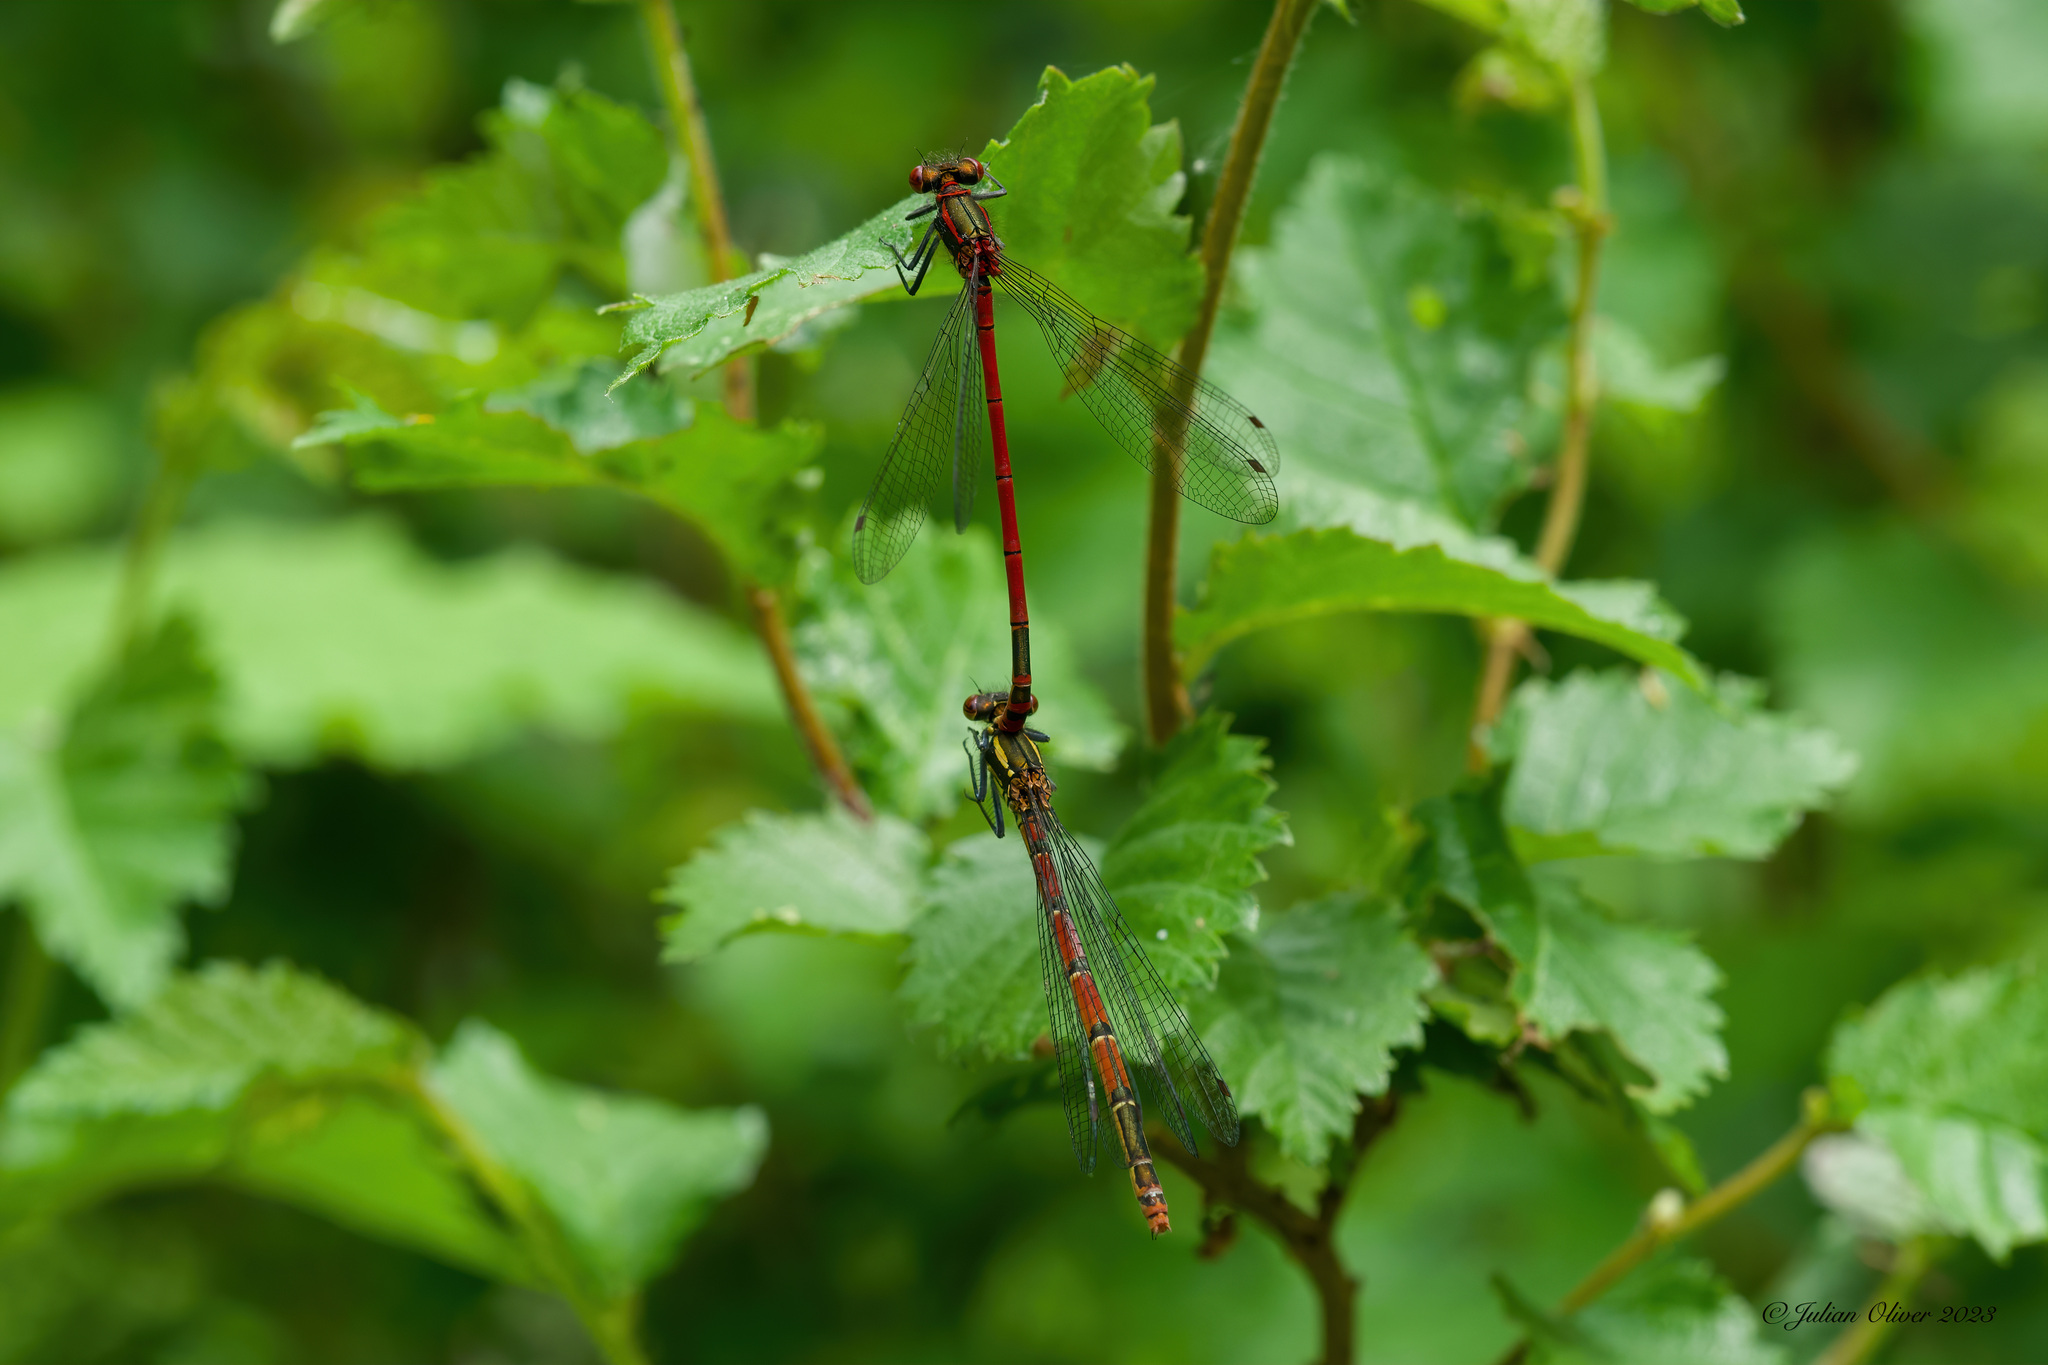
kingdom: Animalia
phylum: Arthropoda
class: Insecta
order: Odonata
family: Coenagrionidae
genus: Pyrrhosoma
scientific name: Pyrrhosoma nymphula
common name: Large red damsel
